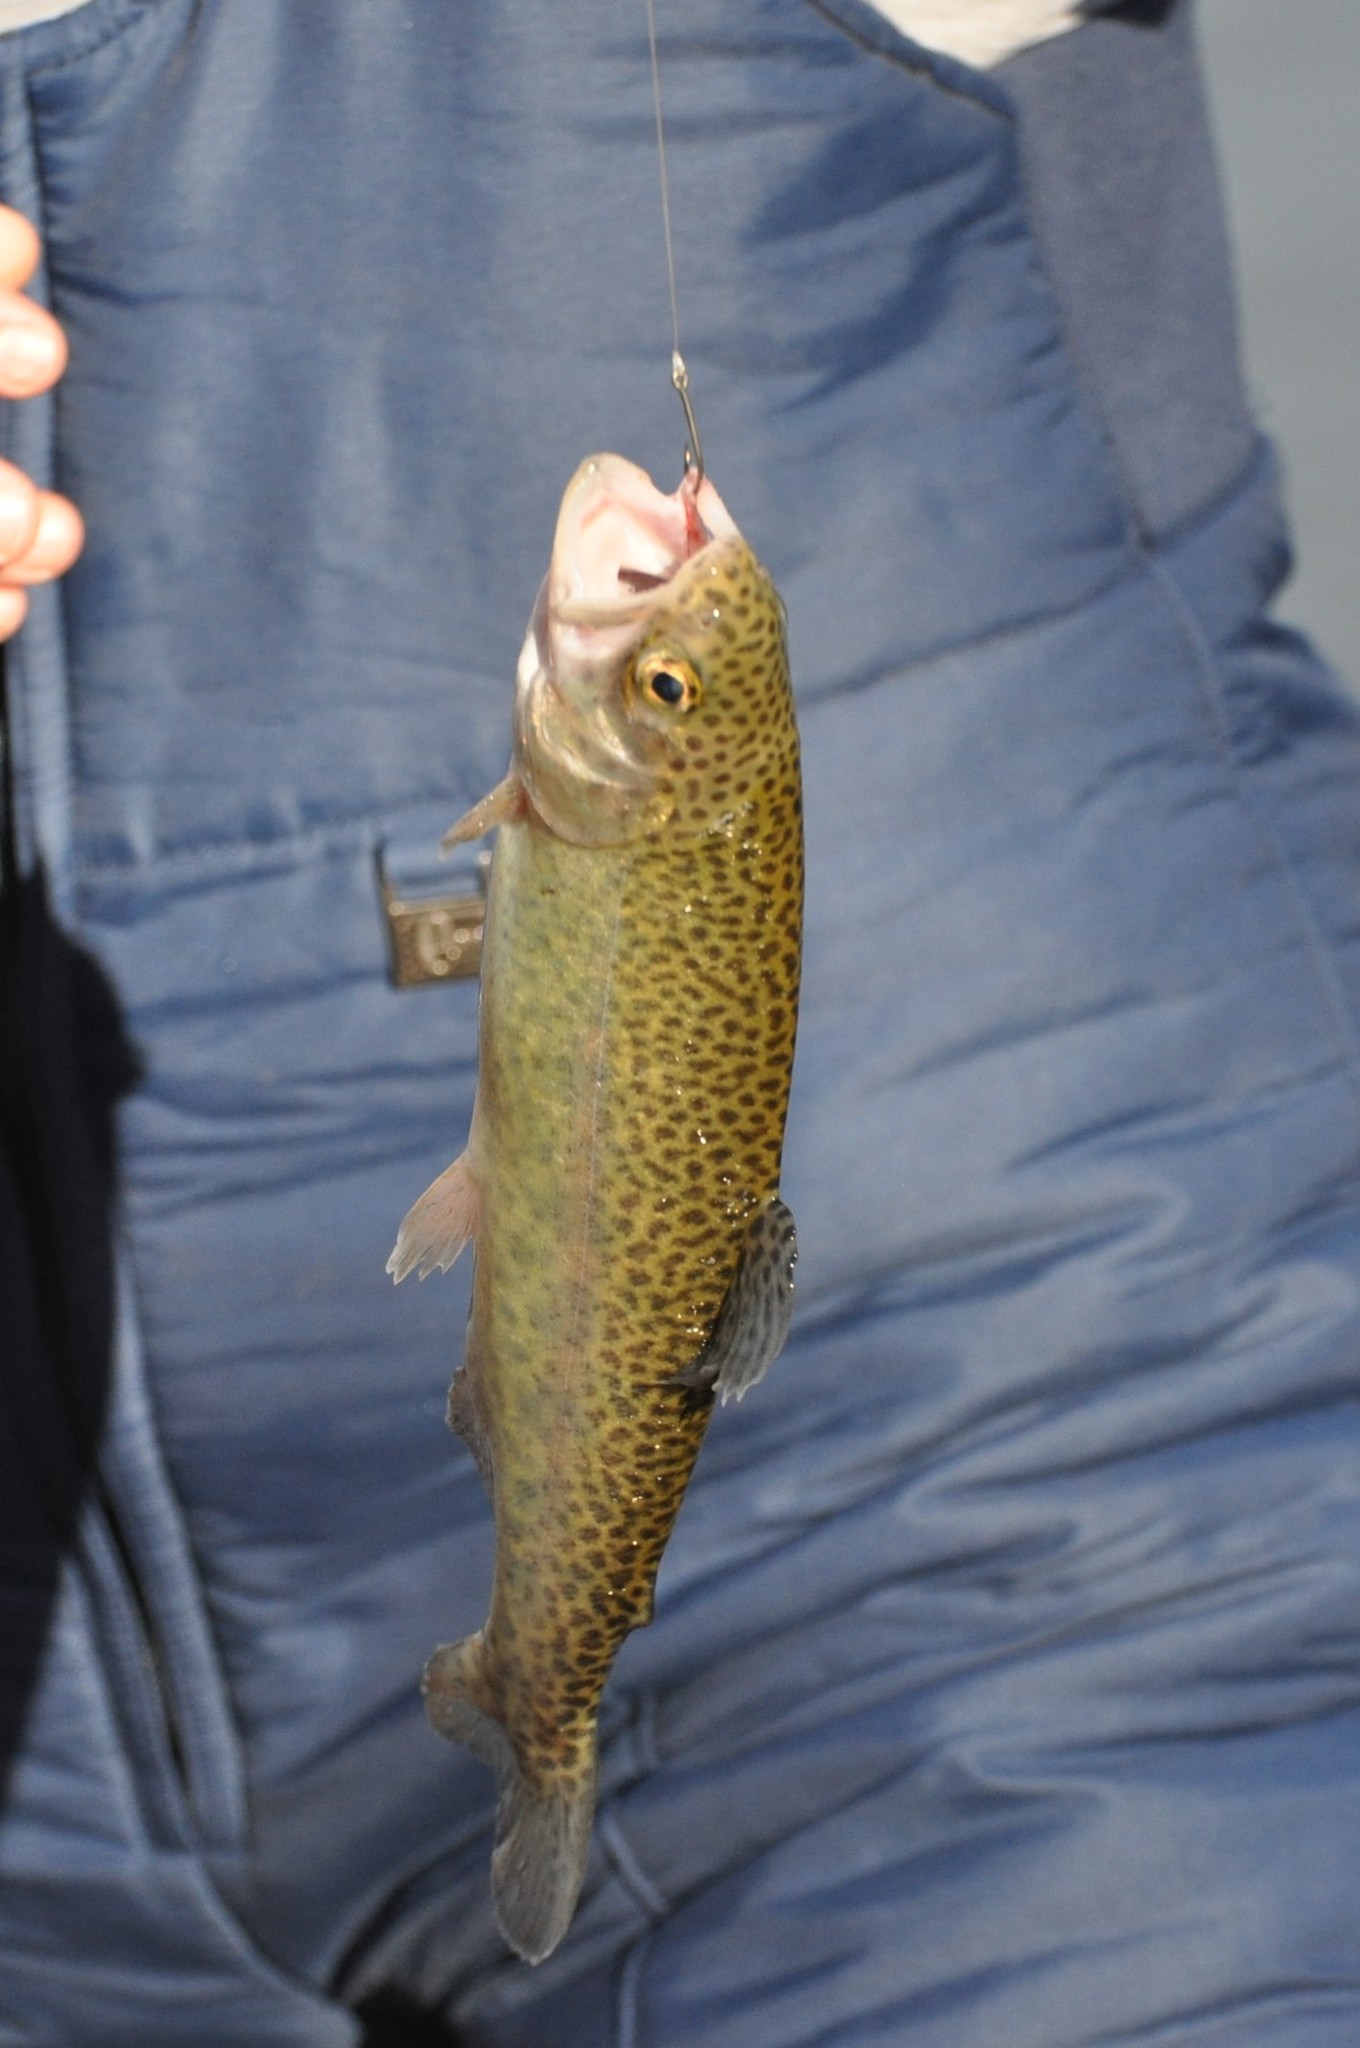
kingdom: Animalia
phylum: Chordata
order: Salmoniformes
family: Salmonidae
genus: Oncorhynchus
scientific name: Oncorhynchus mykiss
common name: Rainbow trout
